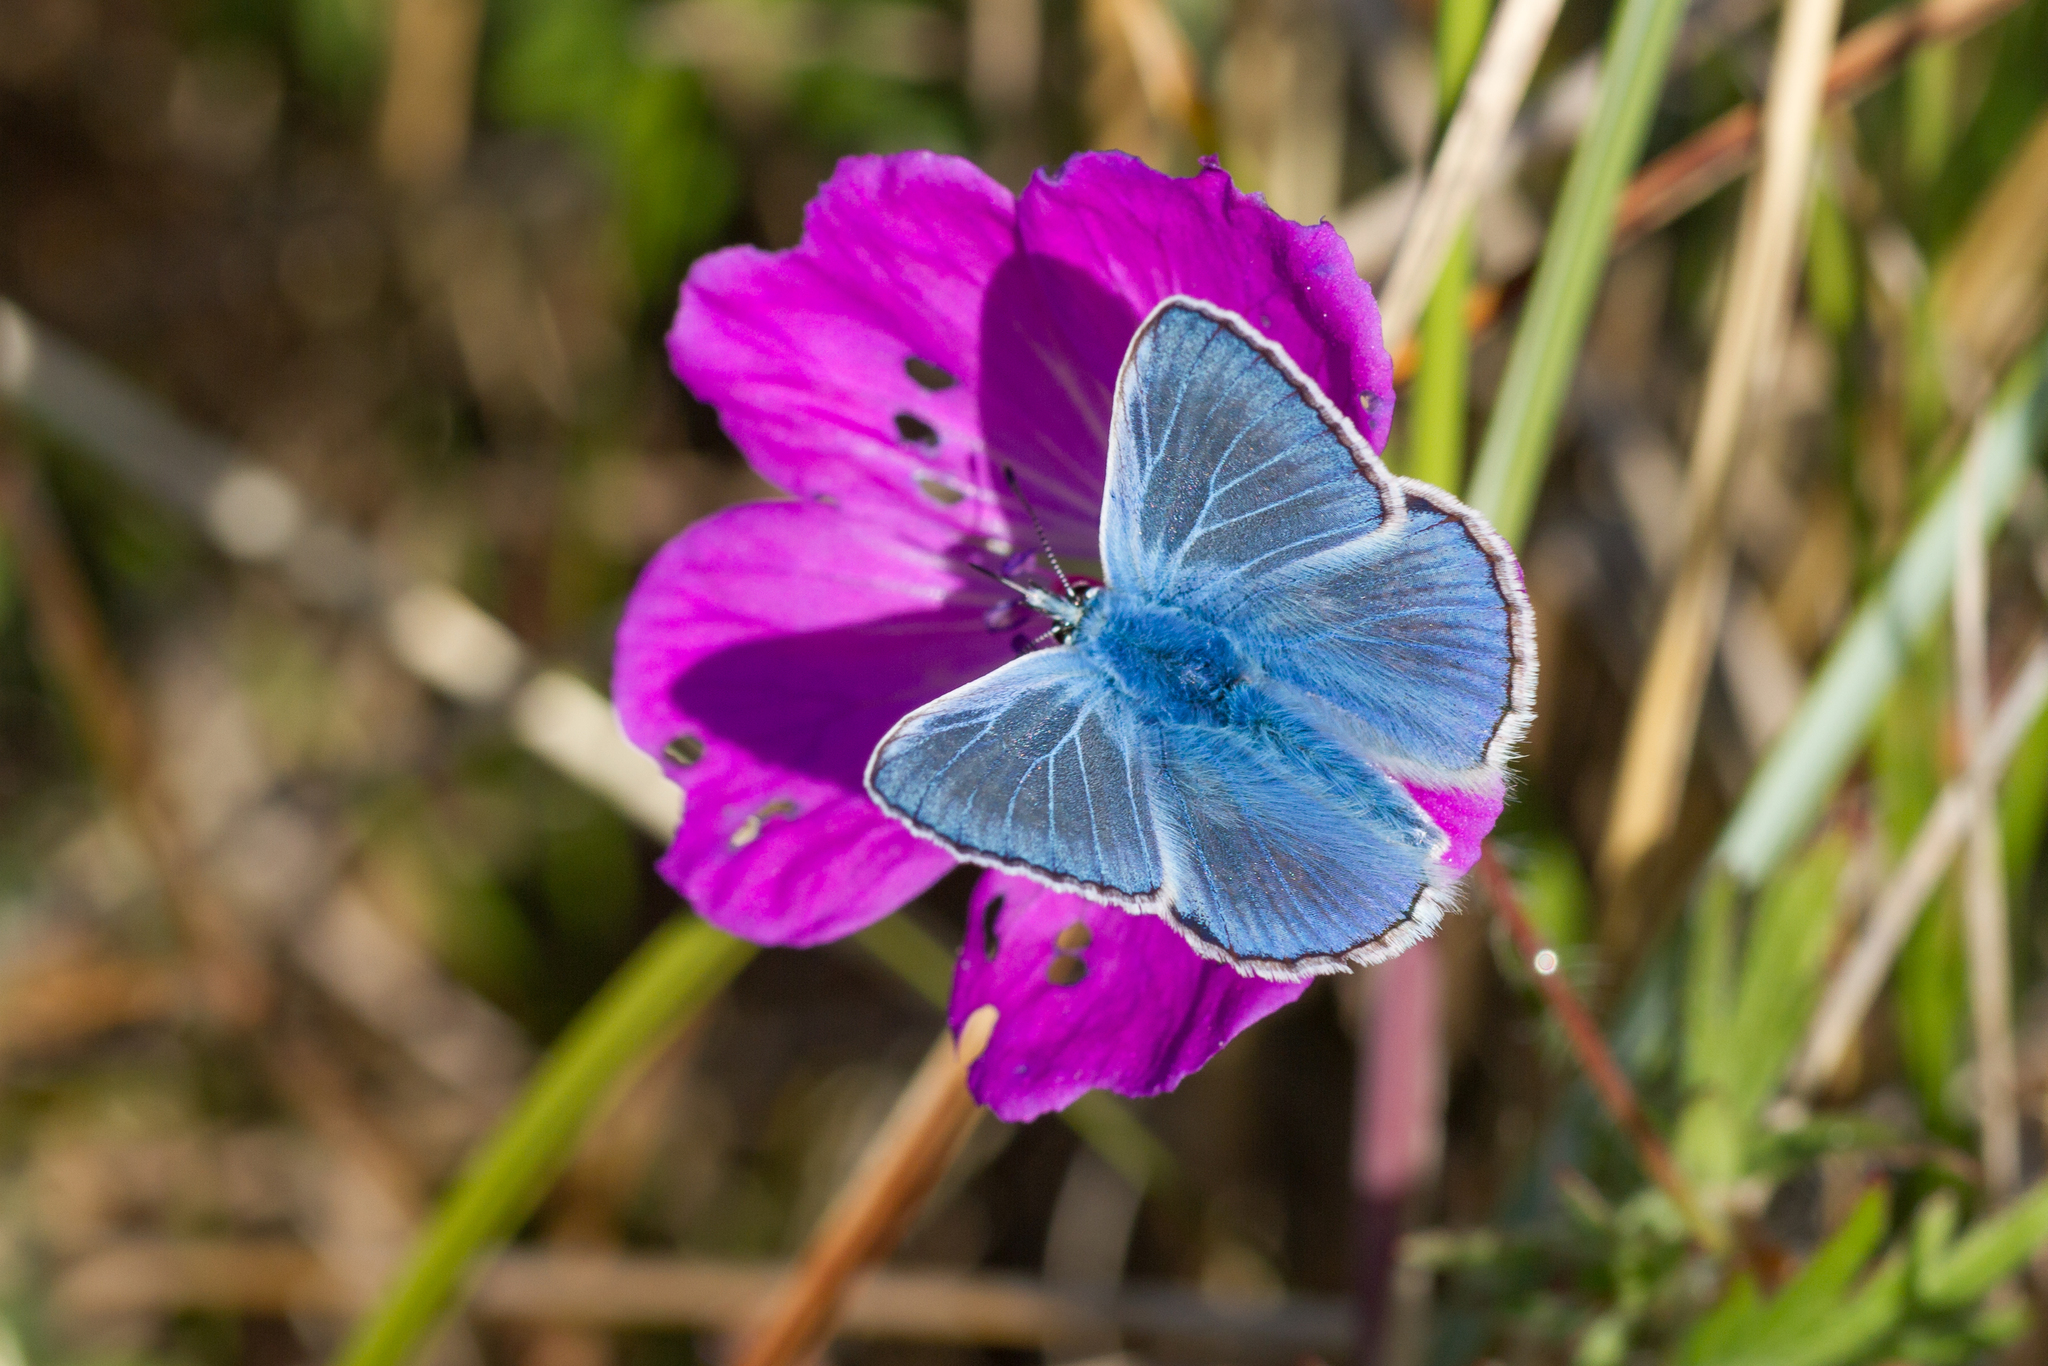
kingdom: Animalia
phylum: Arthropoda
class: Insecta
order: Lepidoptera
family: Lycaenidae
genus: Polyommatus
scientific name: Polyommatus icarus
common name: Common blue
